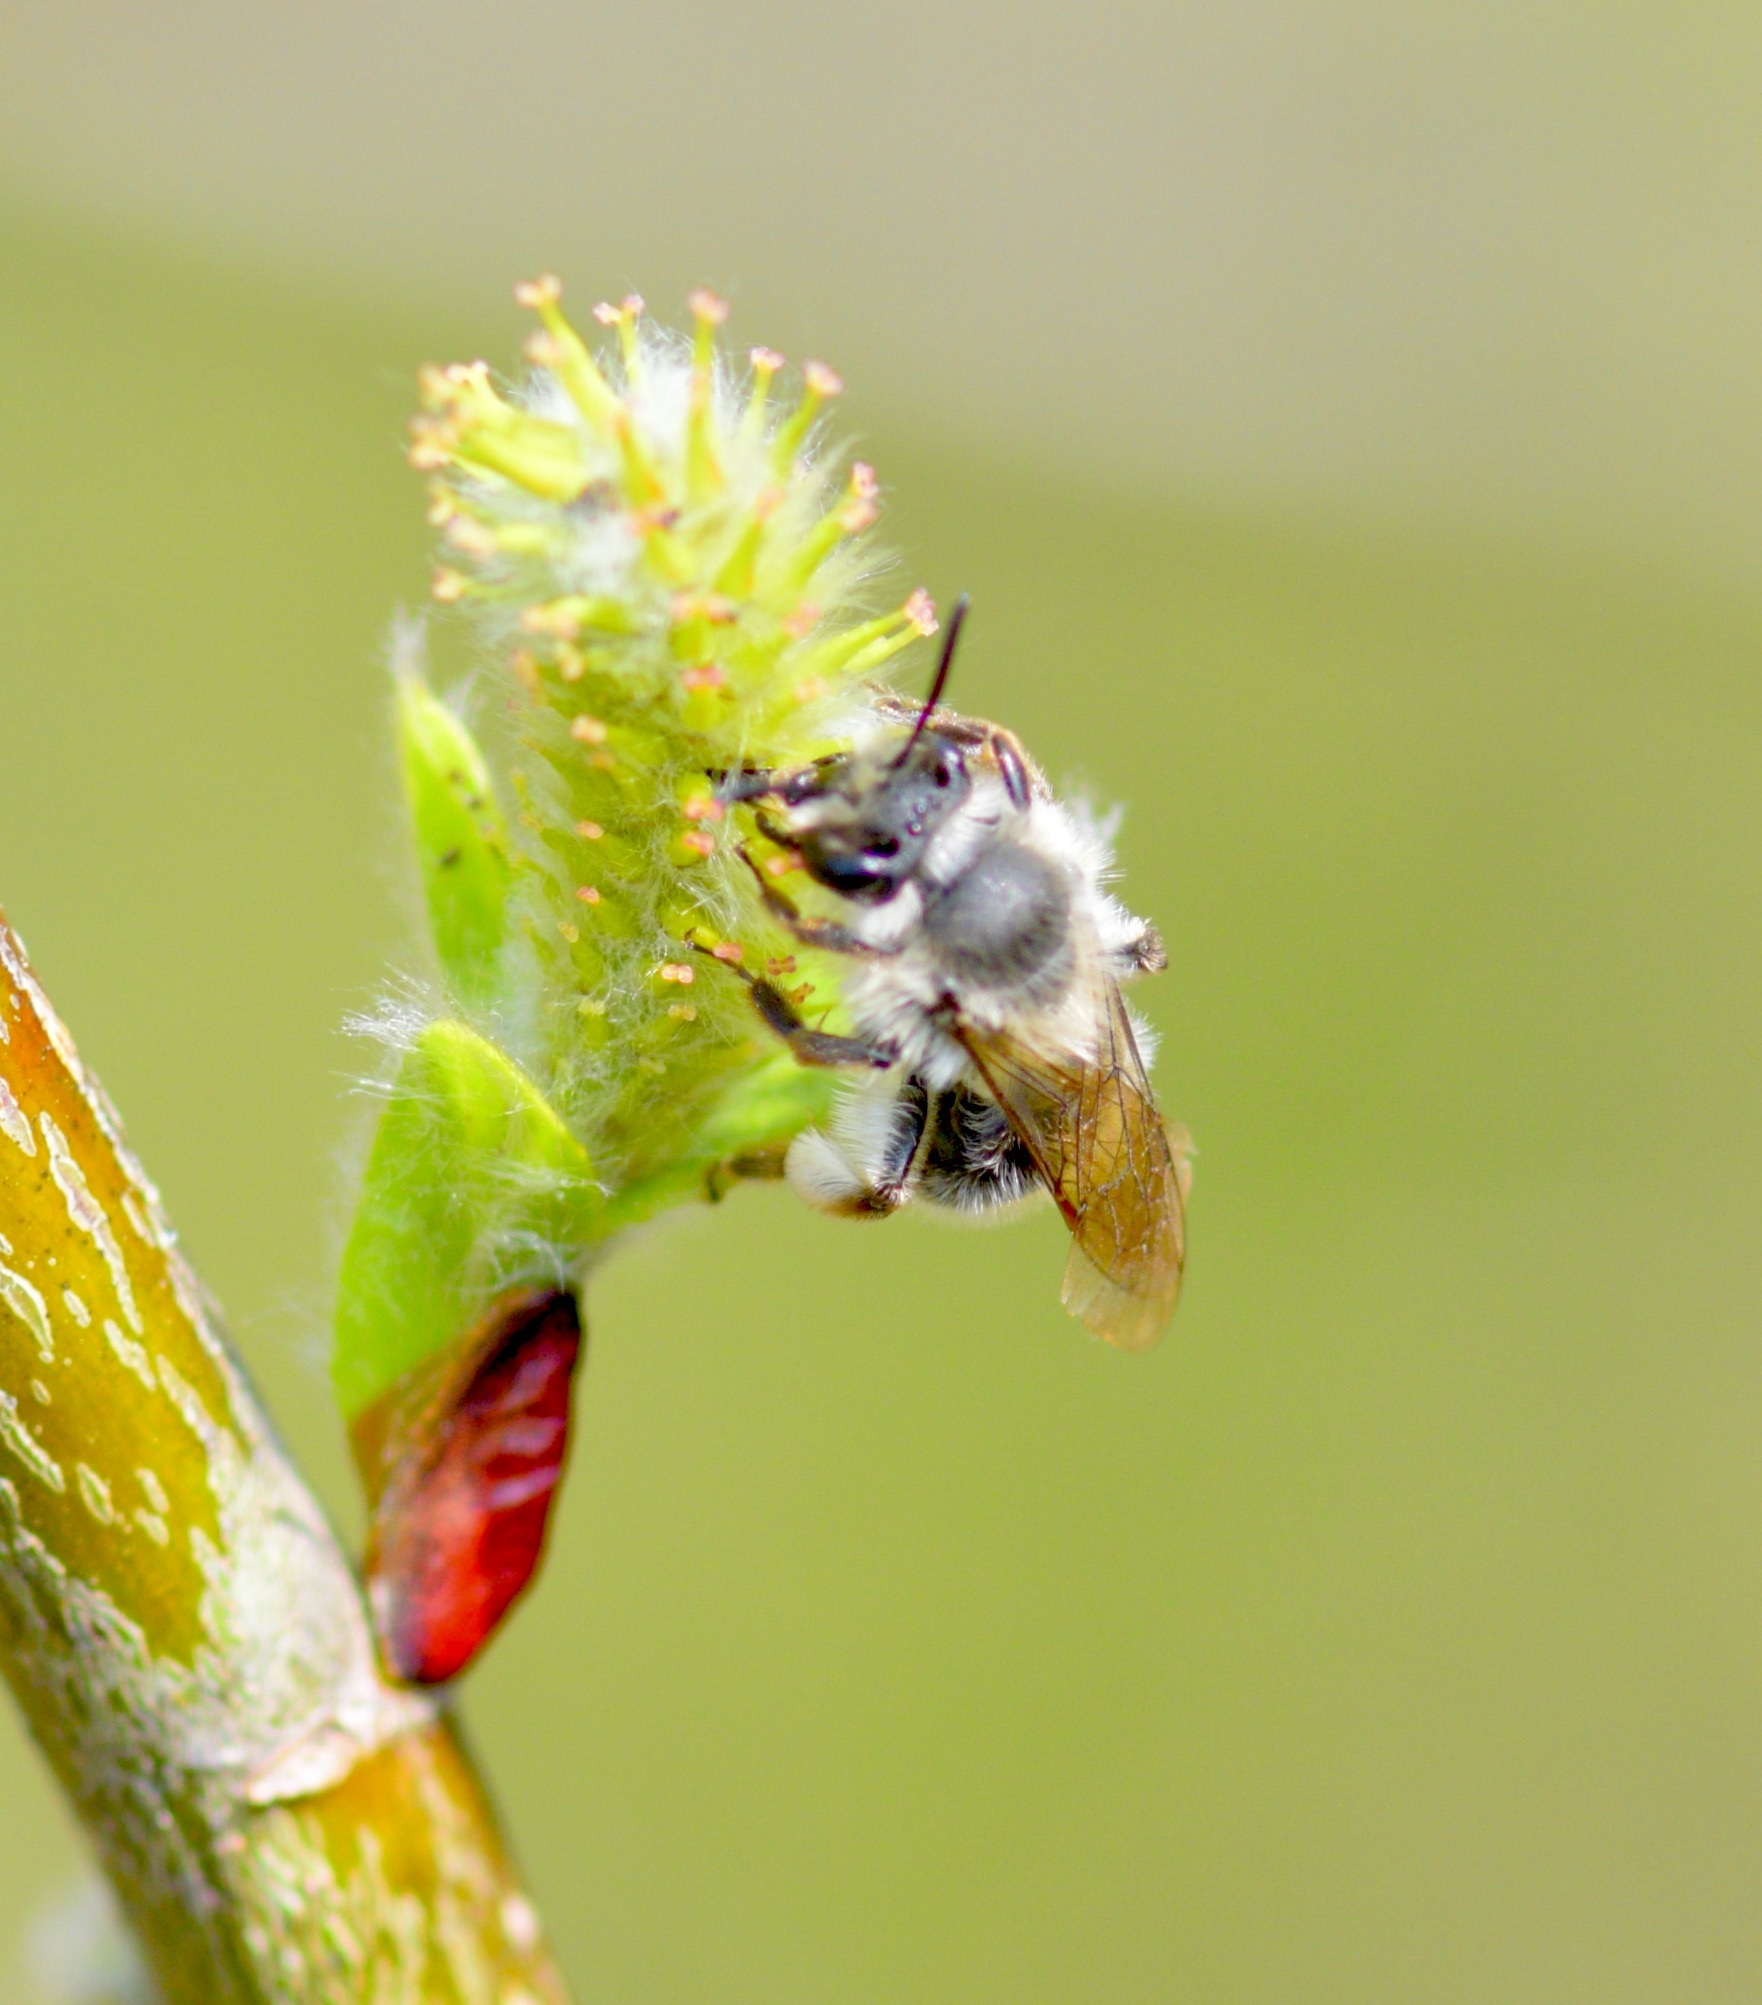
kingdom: Animalia
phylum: Arthropoda
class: Insecta
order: Hymenoptera
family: Andrenidae
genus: Andrena
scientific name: Andrena frigida
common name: Frigid mining bee
